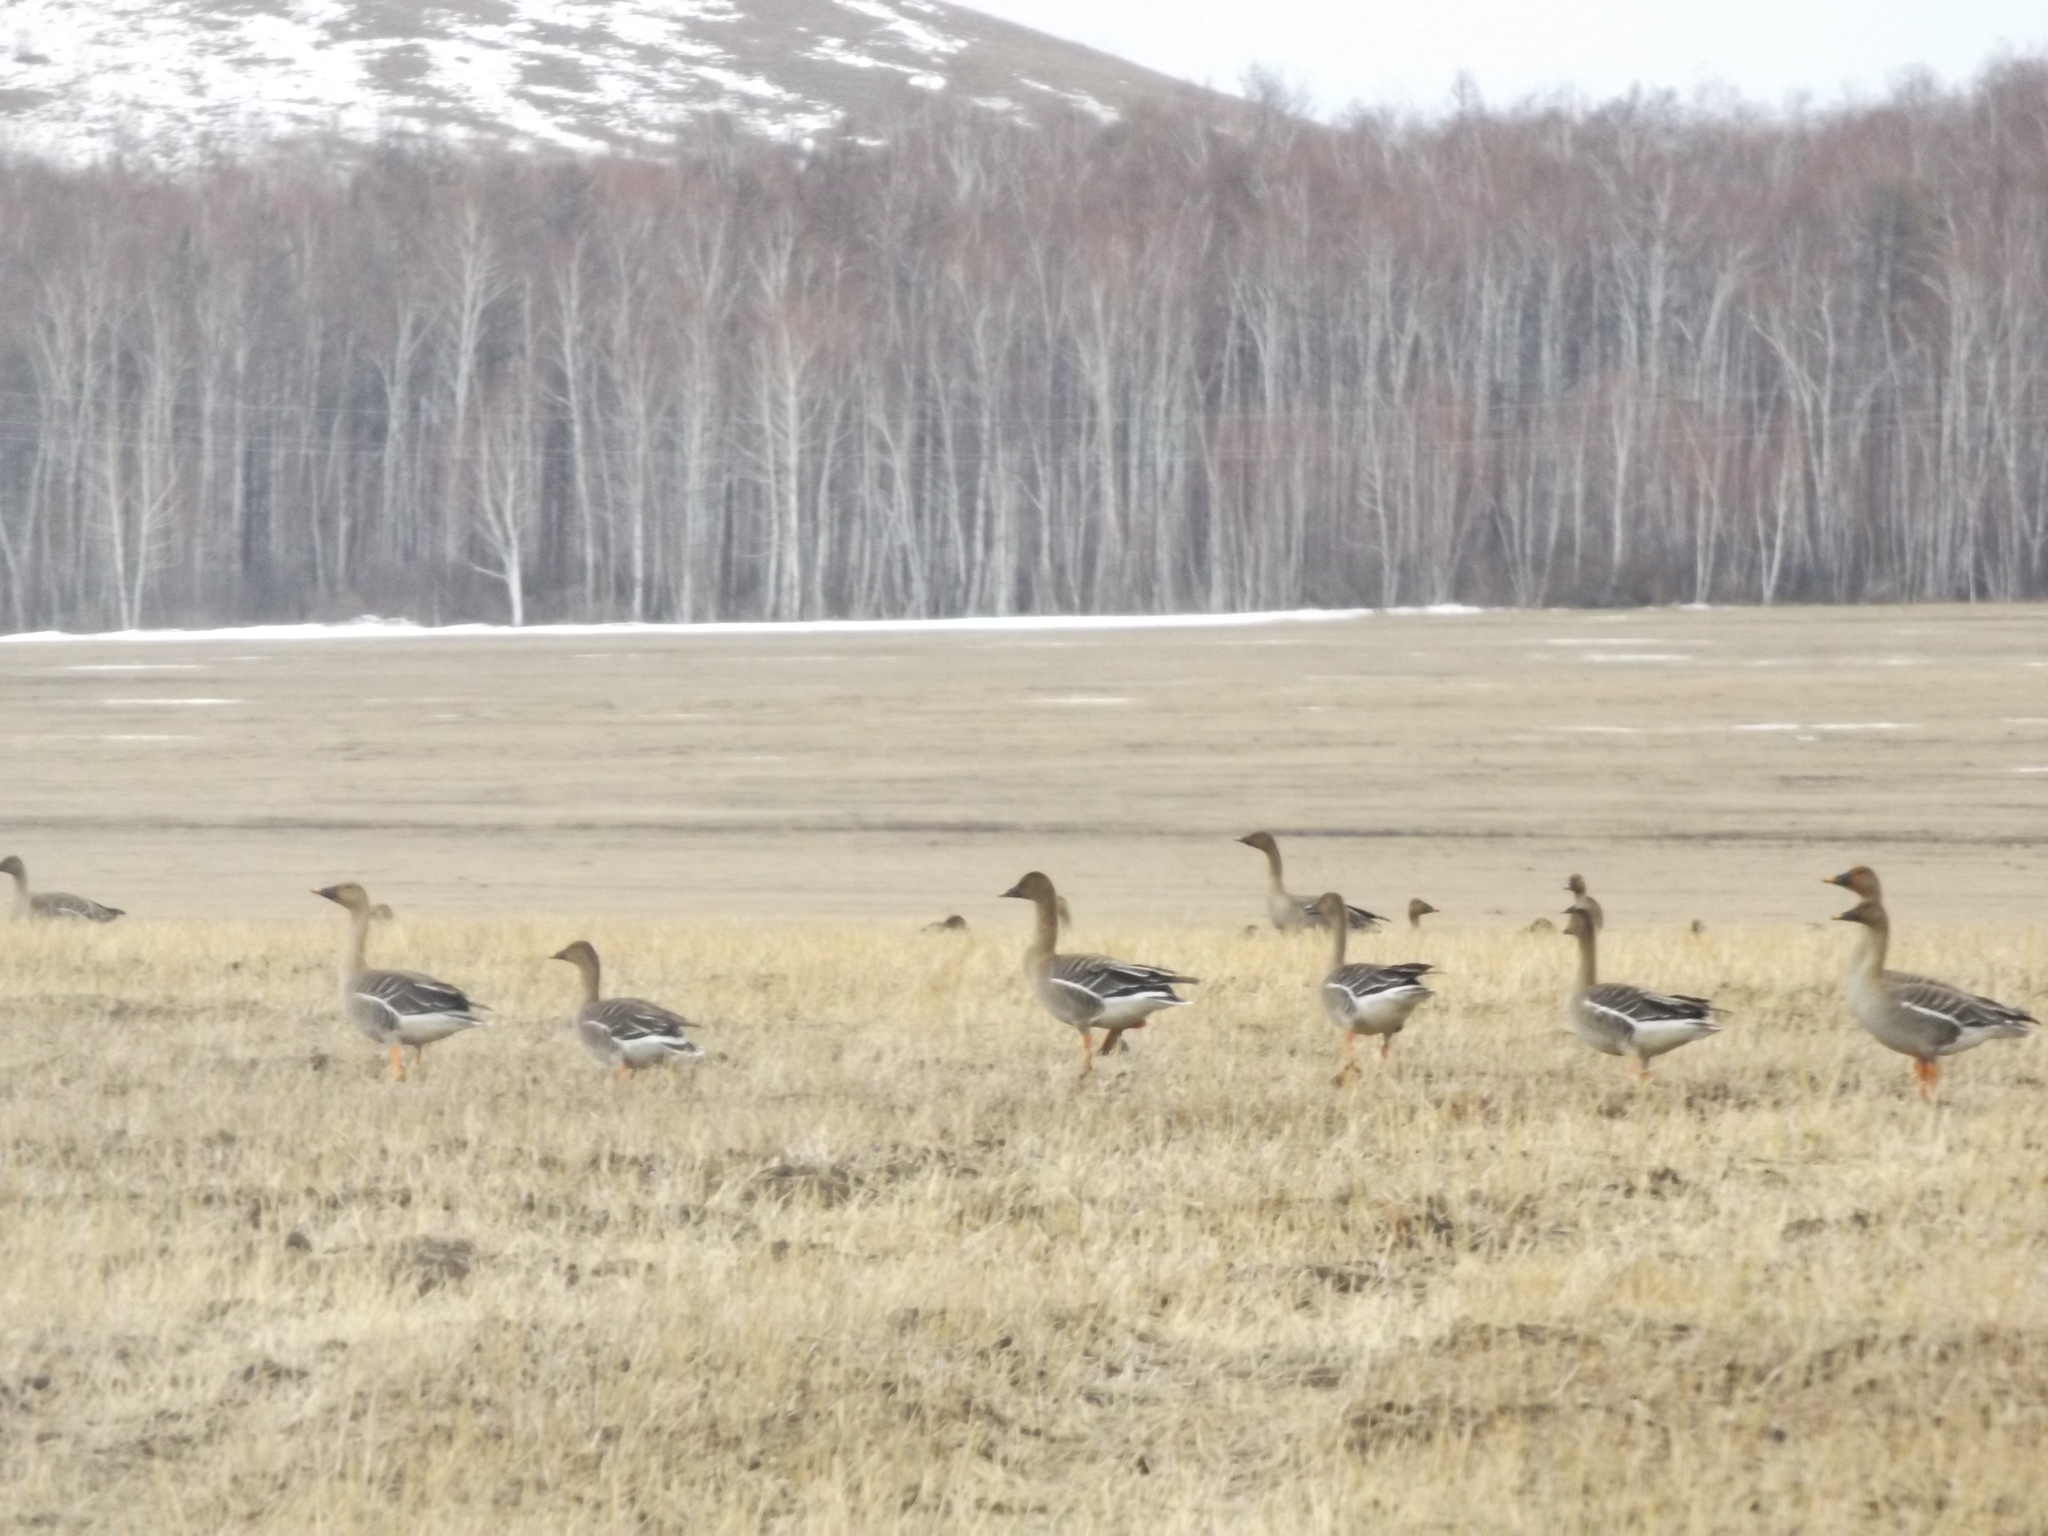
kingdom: Animalia
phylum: Chordata
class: Aves
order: Anseriformes
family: Anatidae
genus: Anser
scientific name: Anser fabalis
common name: Bean goose
